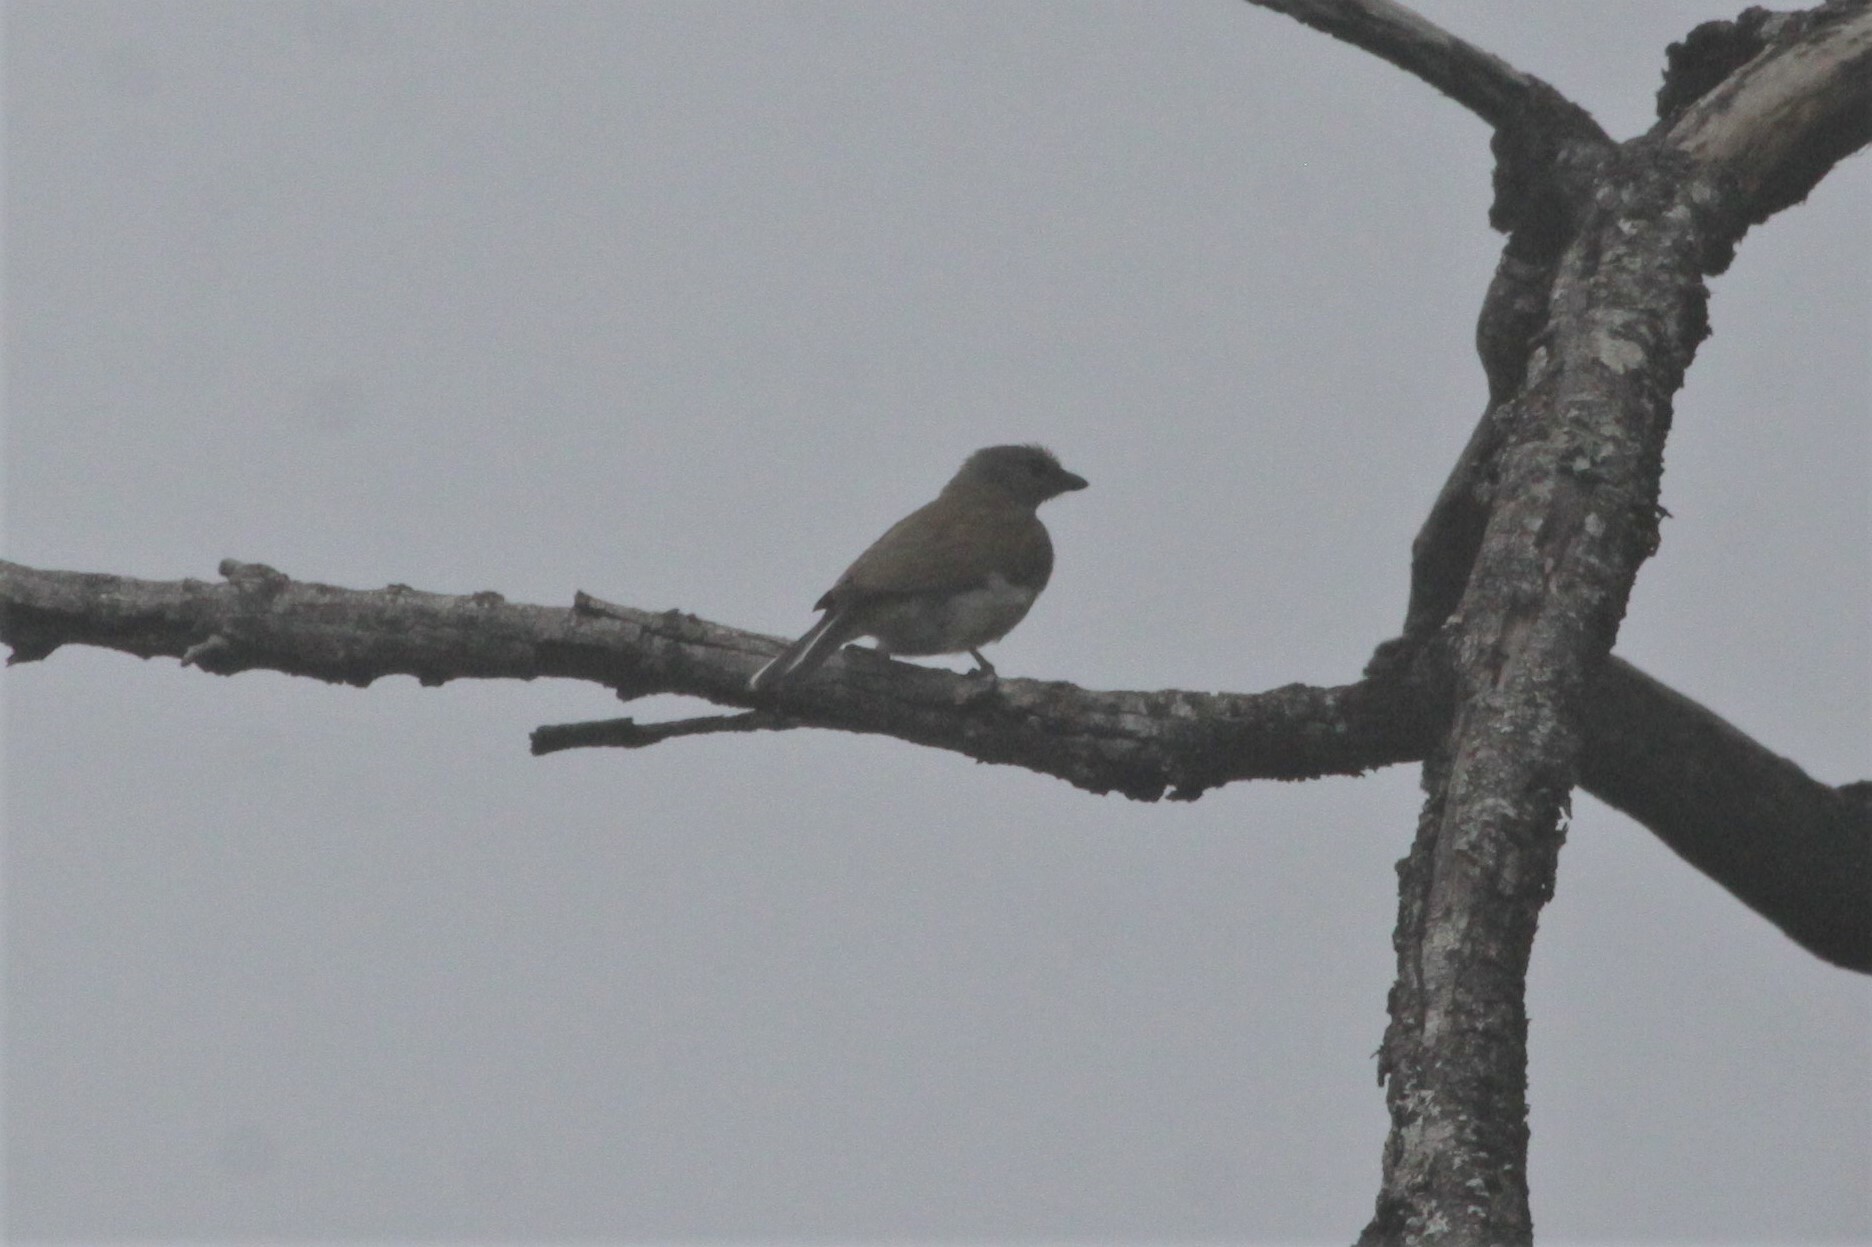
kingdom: Animalia
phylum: Chordata
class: Aves
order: Piciformes
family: Indicatoridae
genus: Indicator
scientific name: Indicator minor
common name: Lesser honeyguide
